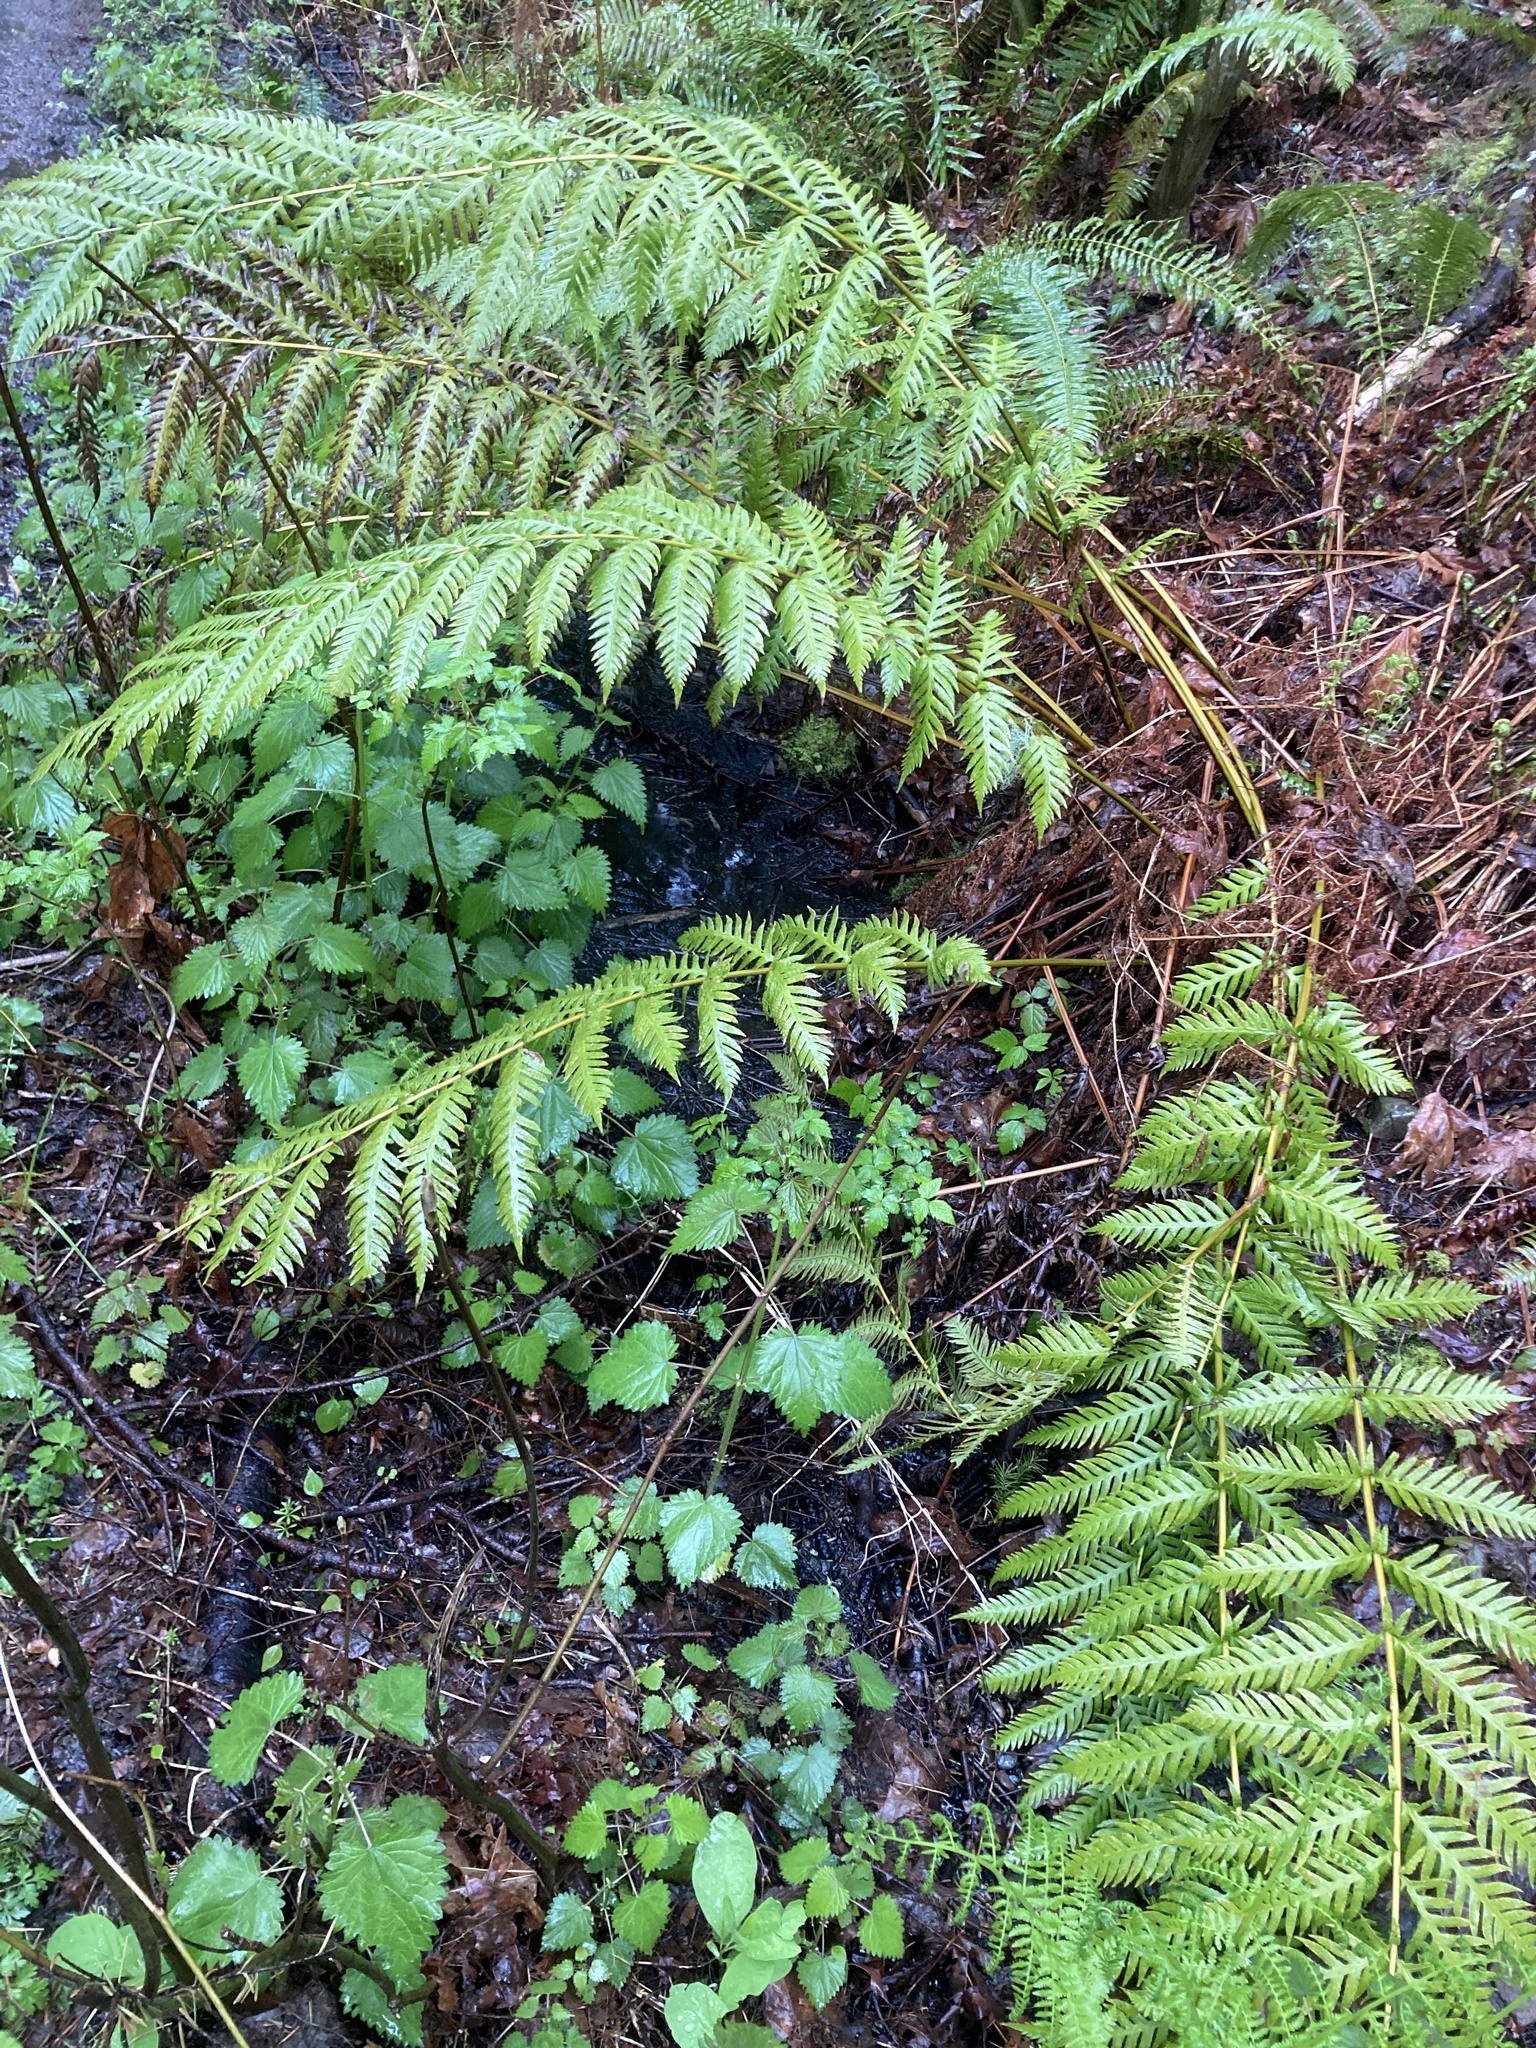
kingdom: Plantae
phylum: Tracheophyta
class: Polypodiopsida
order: Polypodiales
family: Blechnaceae
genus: Woodwardia
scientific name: Woodwardia fimbriata
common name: Giant chain fern
